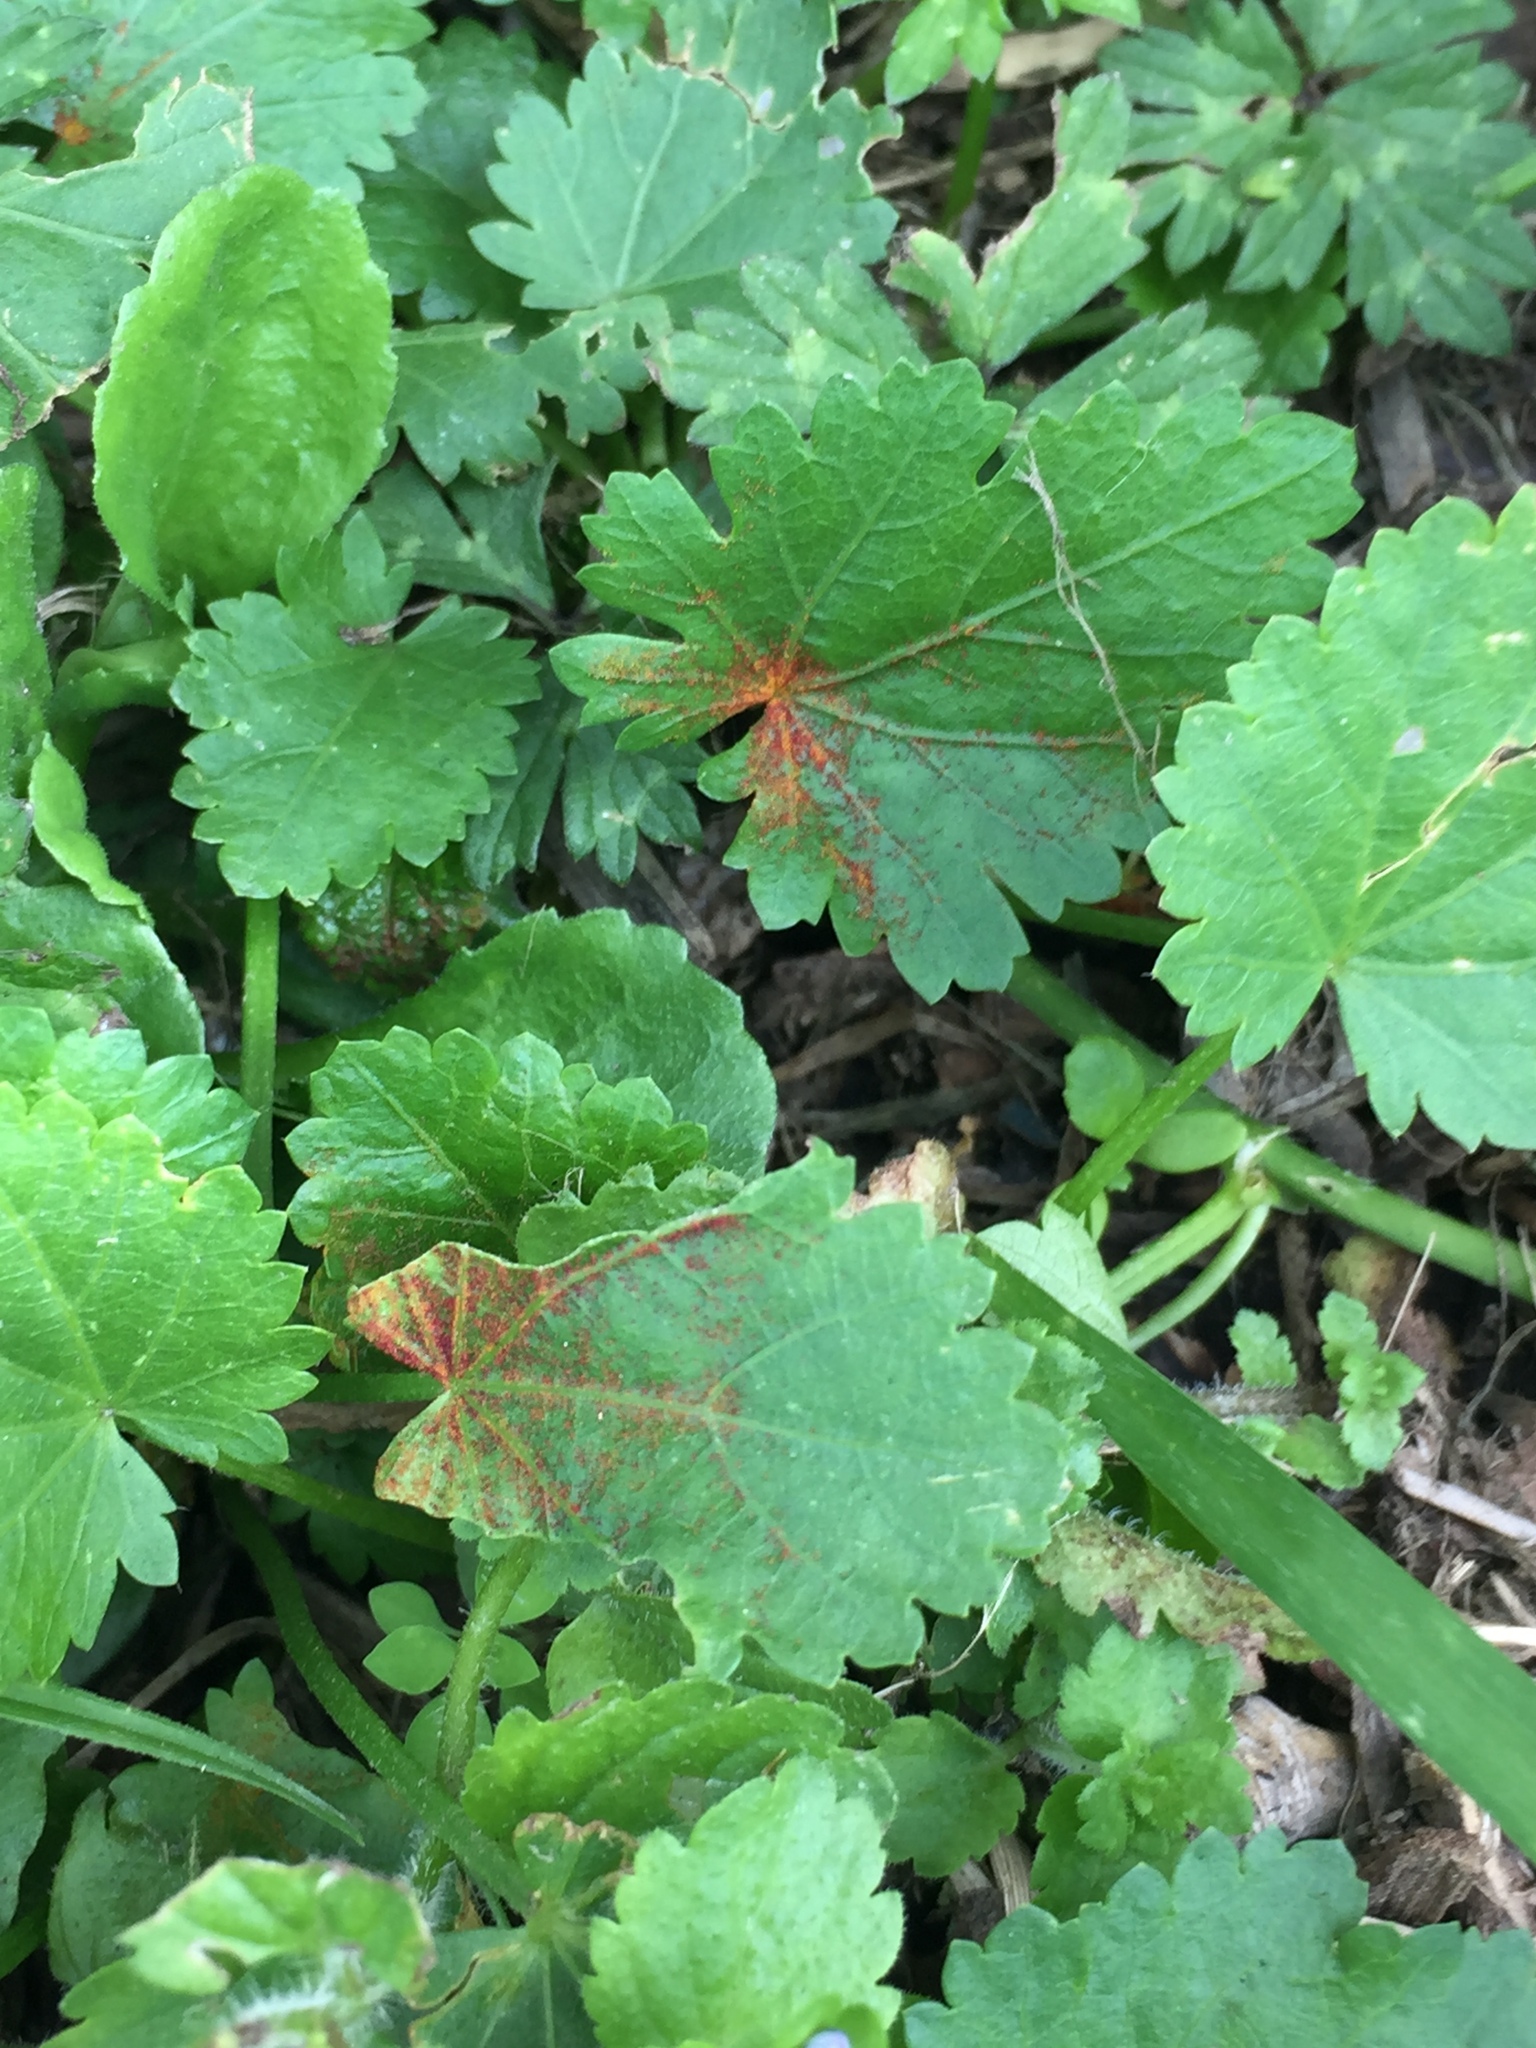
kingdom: Fungi
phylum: Chytridiomycota
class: Chytridiomycetes
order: Chytridiales
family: Synchytriaceae
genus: Synchytrium
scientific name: Synchytrium australe
